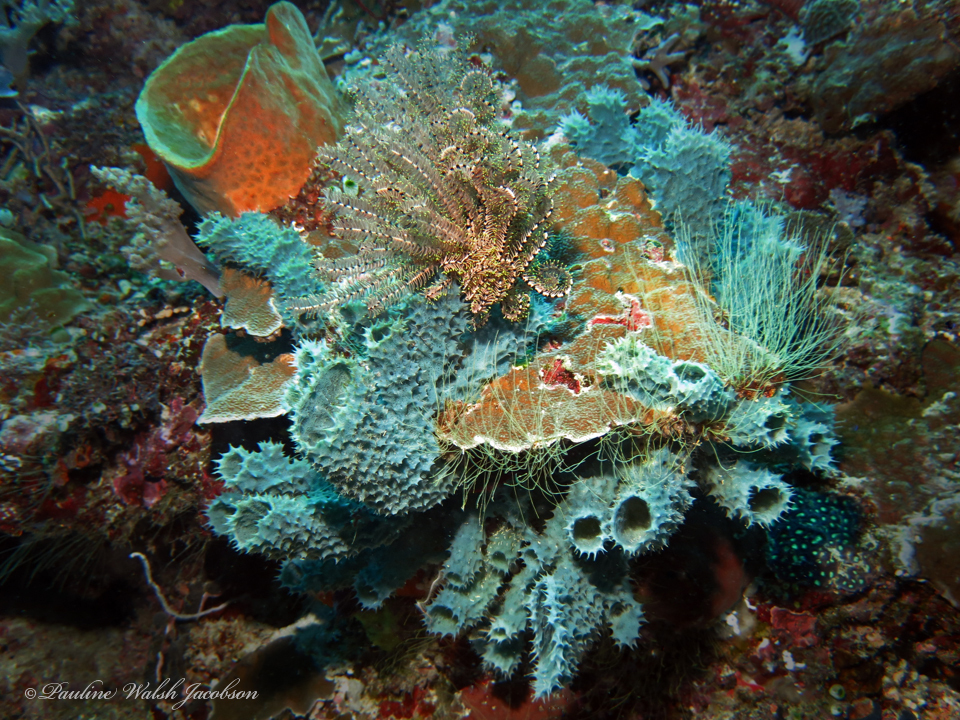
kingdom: Animalia
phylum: Porifera
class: Demospongiae
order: Haplosclerida
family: Callyspongiidae
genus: Callyspongia
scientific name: Callyspongia aerizusa
